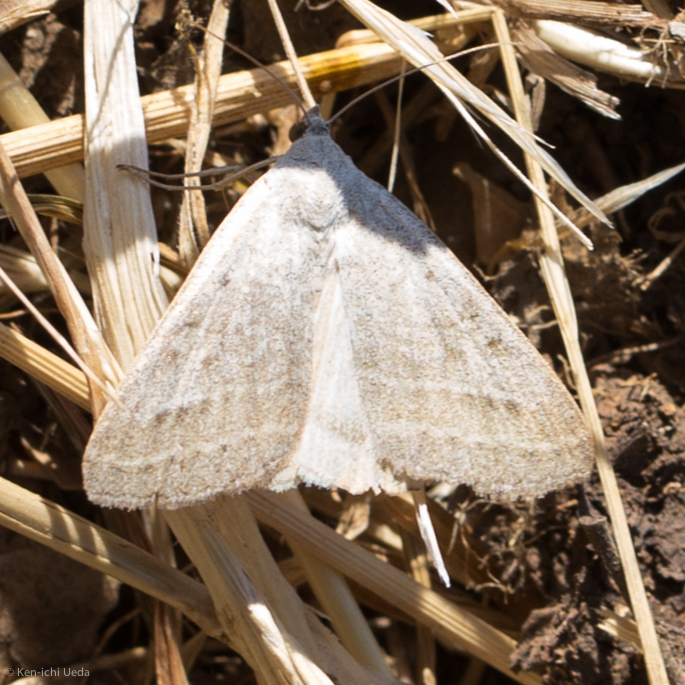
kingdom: Animalia
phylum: Arthropoda
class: Insecta
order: Lepidoptera
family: Erebidae
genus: Caenurgia
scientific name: Caenurgia togataria
